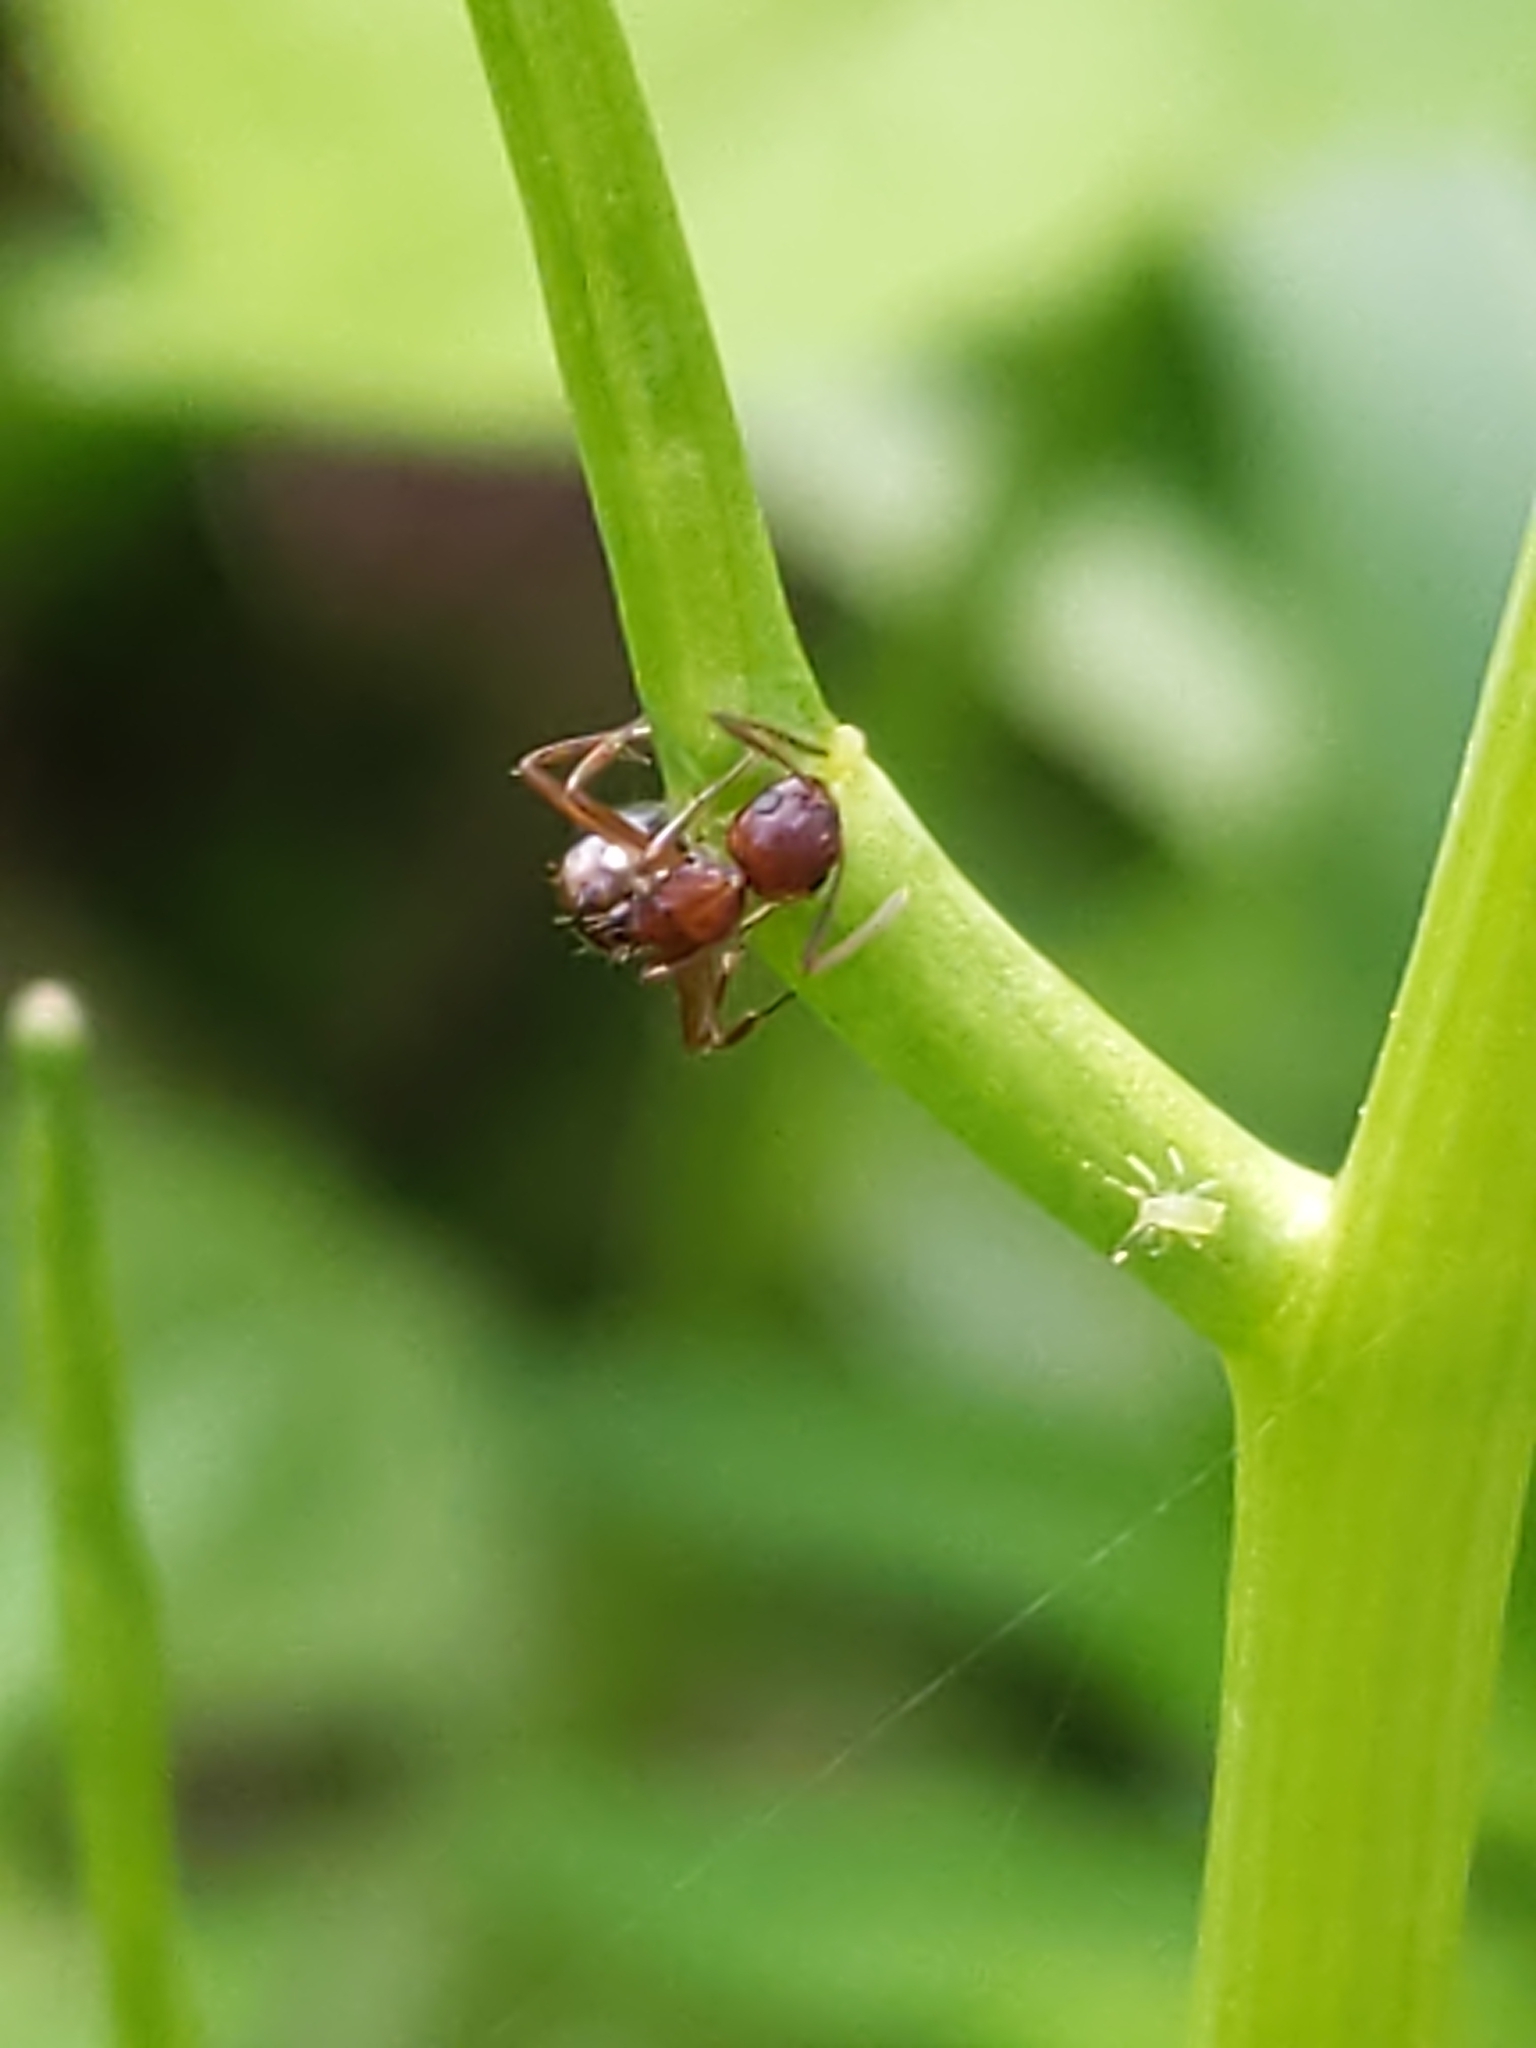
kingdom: Animalia
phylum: Arthropoda
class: Insecta
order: Hymenoptera
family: Formicidae
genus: Camponotus
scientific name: Camponotus subbarbatus
